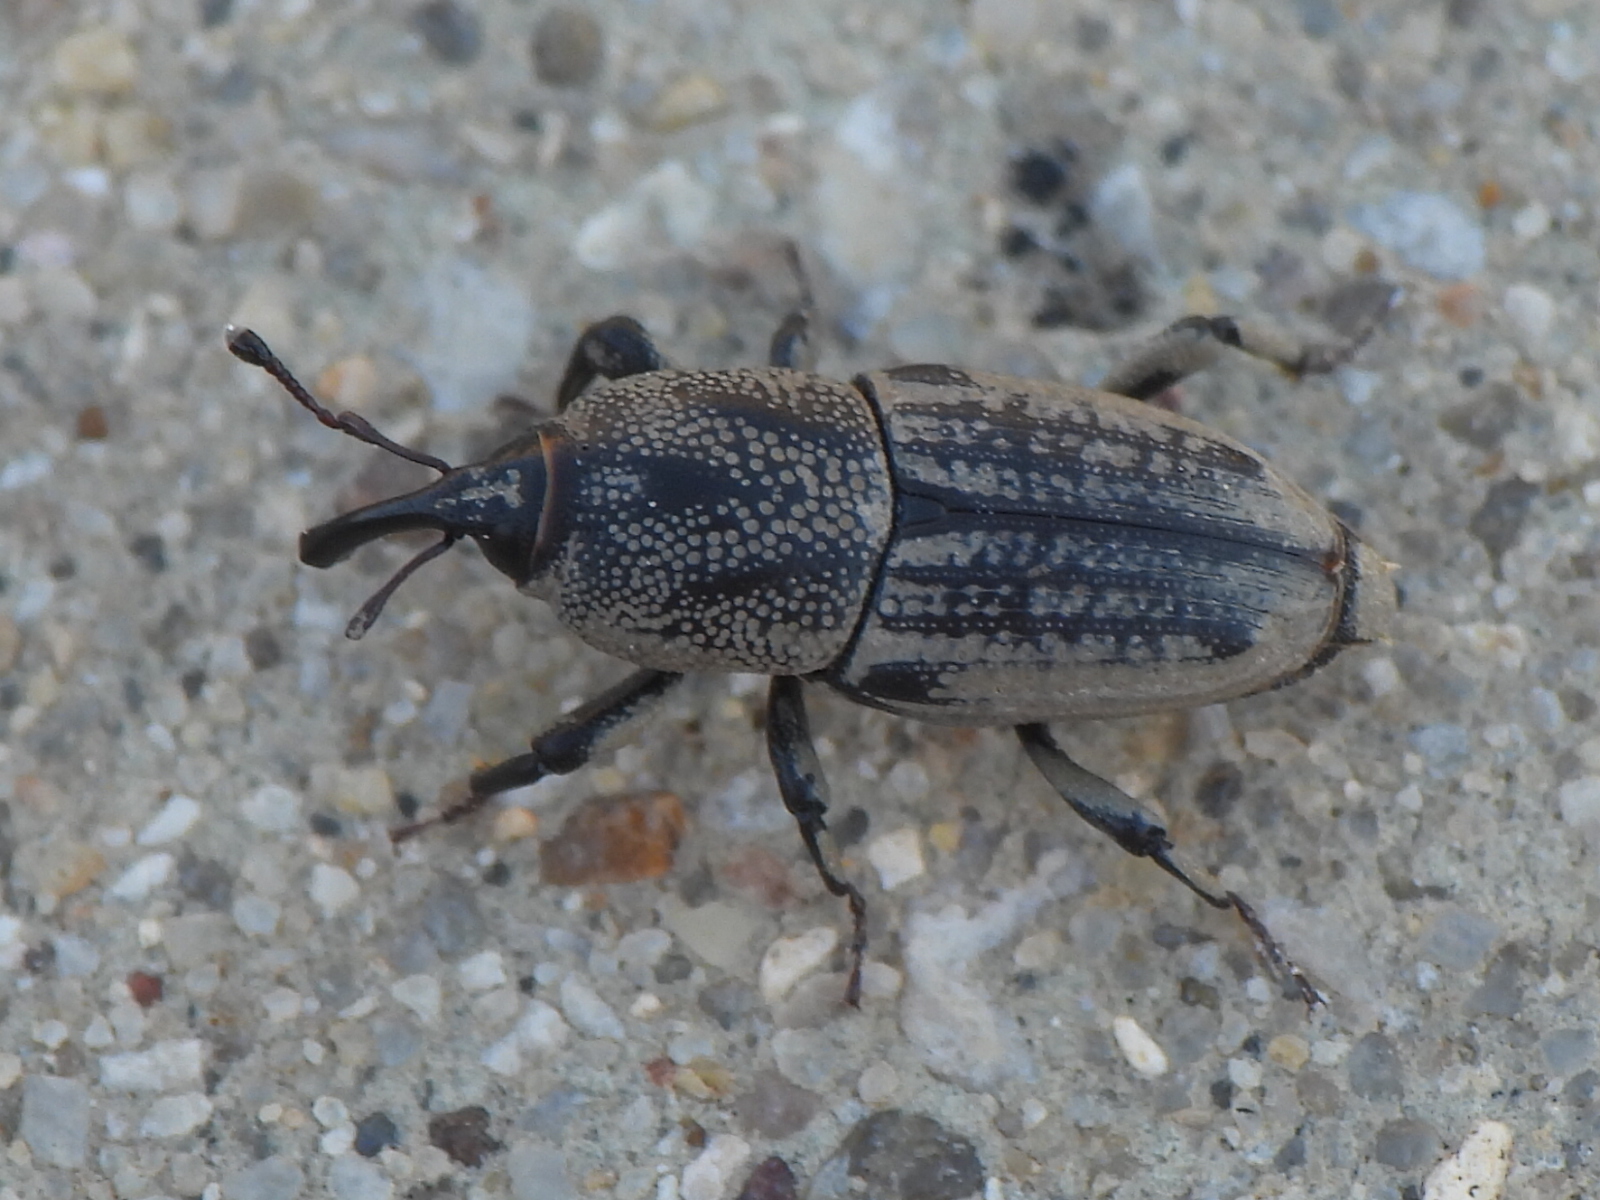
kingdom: Animalia
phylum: Arthropoda
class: Insecta
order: Coleoptera
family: Dryophthoridae
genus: Sphenophorus
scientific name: Sphenophorus venatus
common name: Hunting billbug
